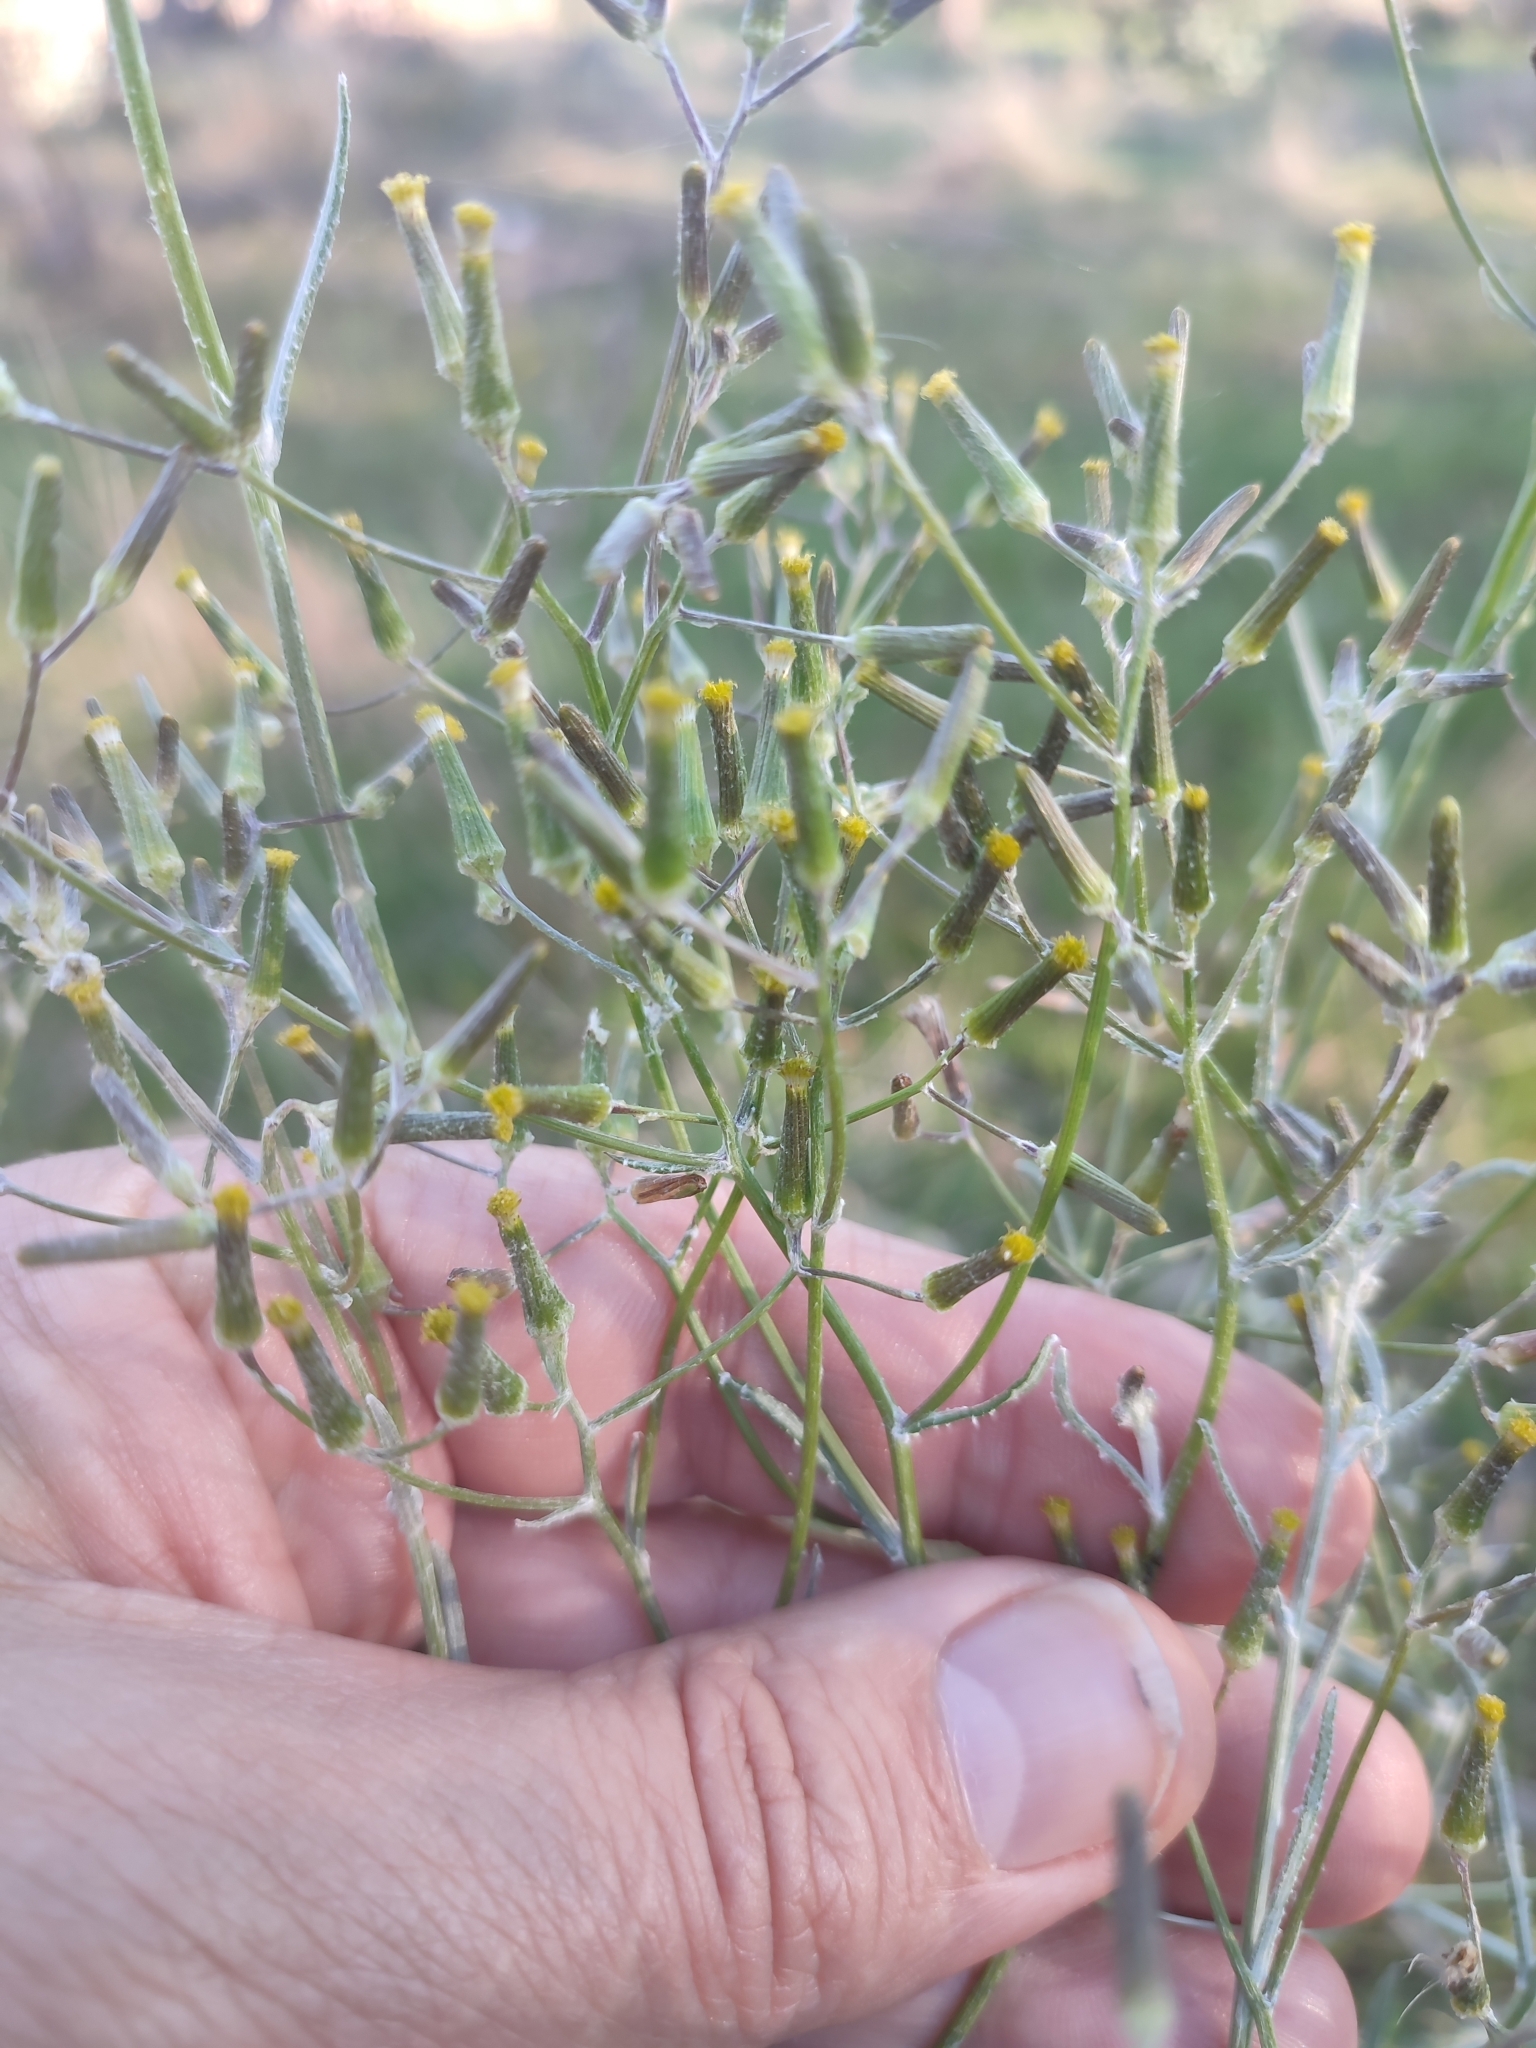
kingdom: Plantae
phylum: Tracheophyta
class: Magnoliopsida
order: Asterales
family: Asteraceae
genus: Senecio
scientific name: Senecio quadridentatus
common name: Cotton fireweed
